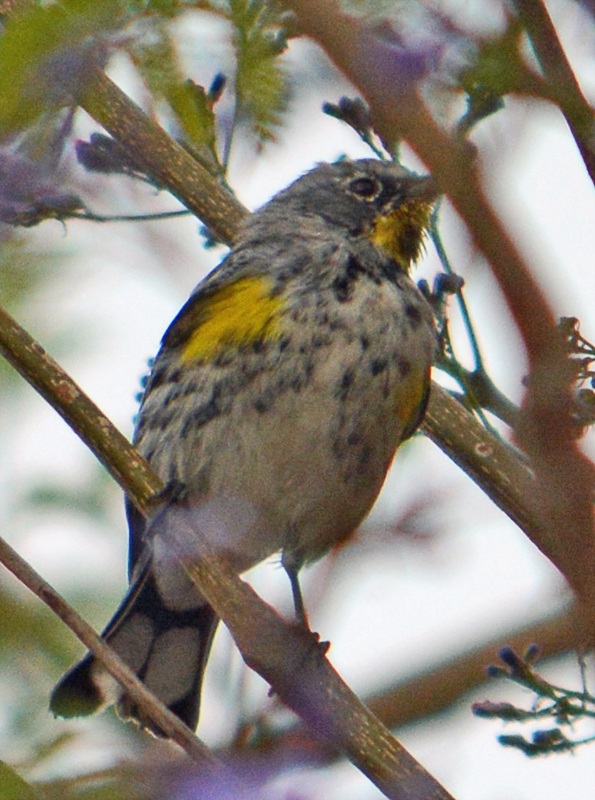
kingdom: Animalia
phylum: Chordata
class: Aves
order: Passeriformes
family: Parulidae
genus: Setophaga
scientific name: Setophaga auduboni
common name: Audubon's warbler
